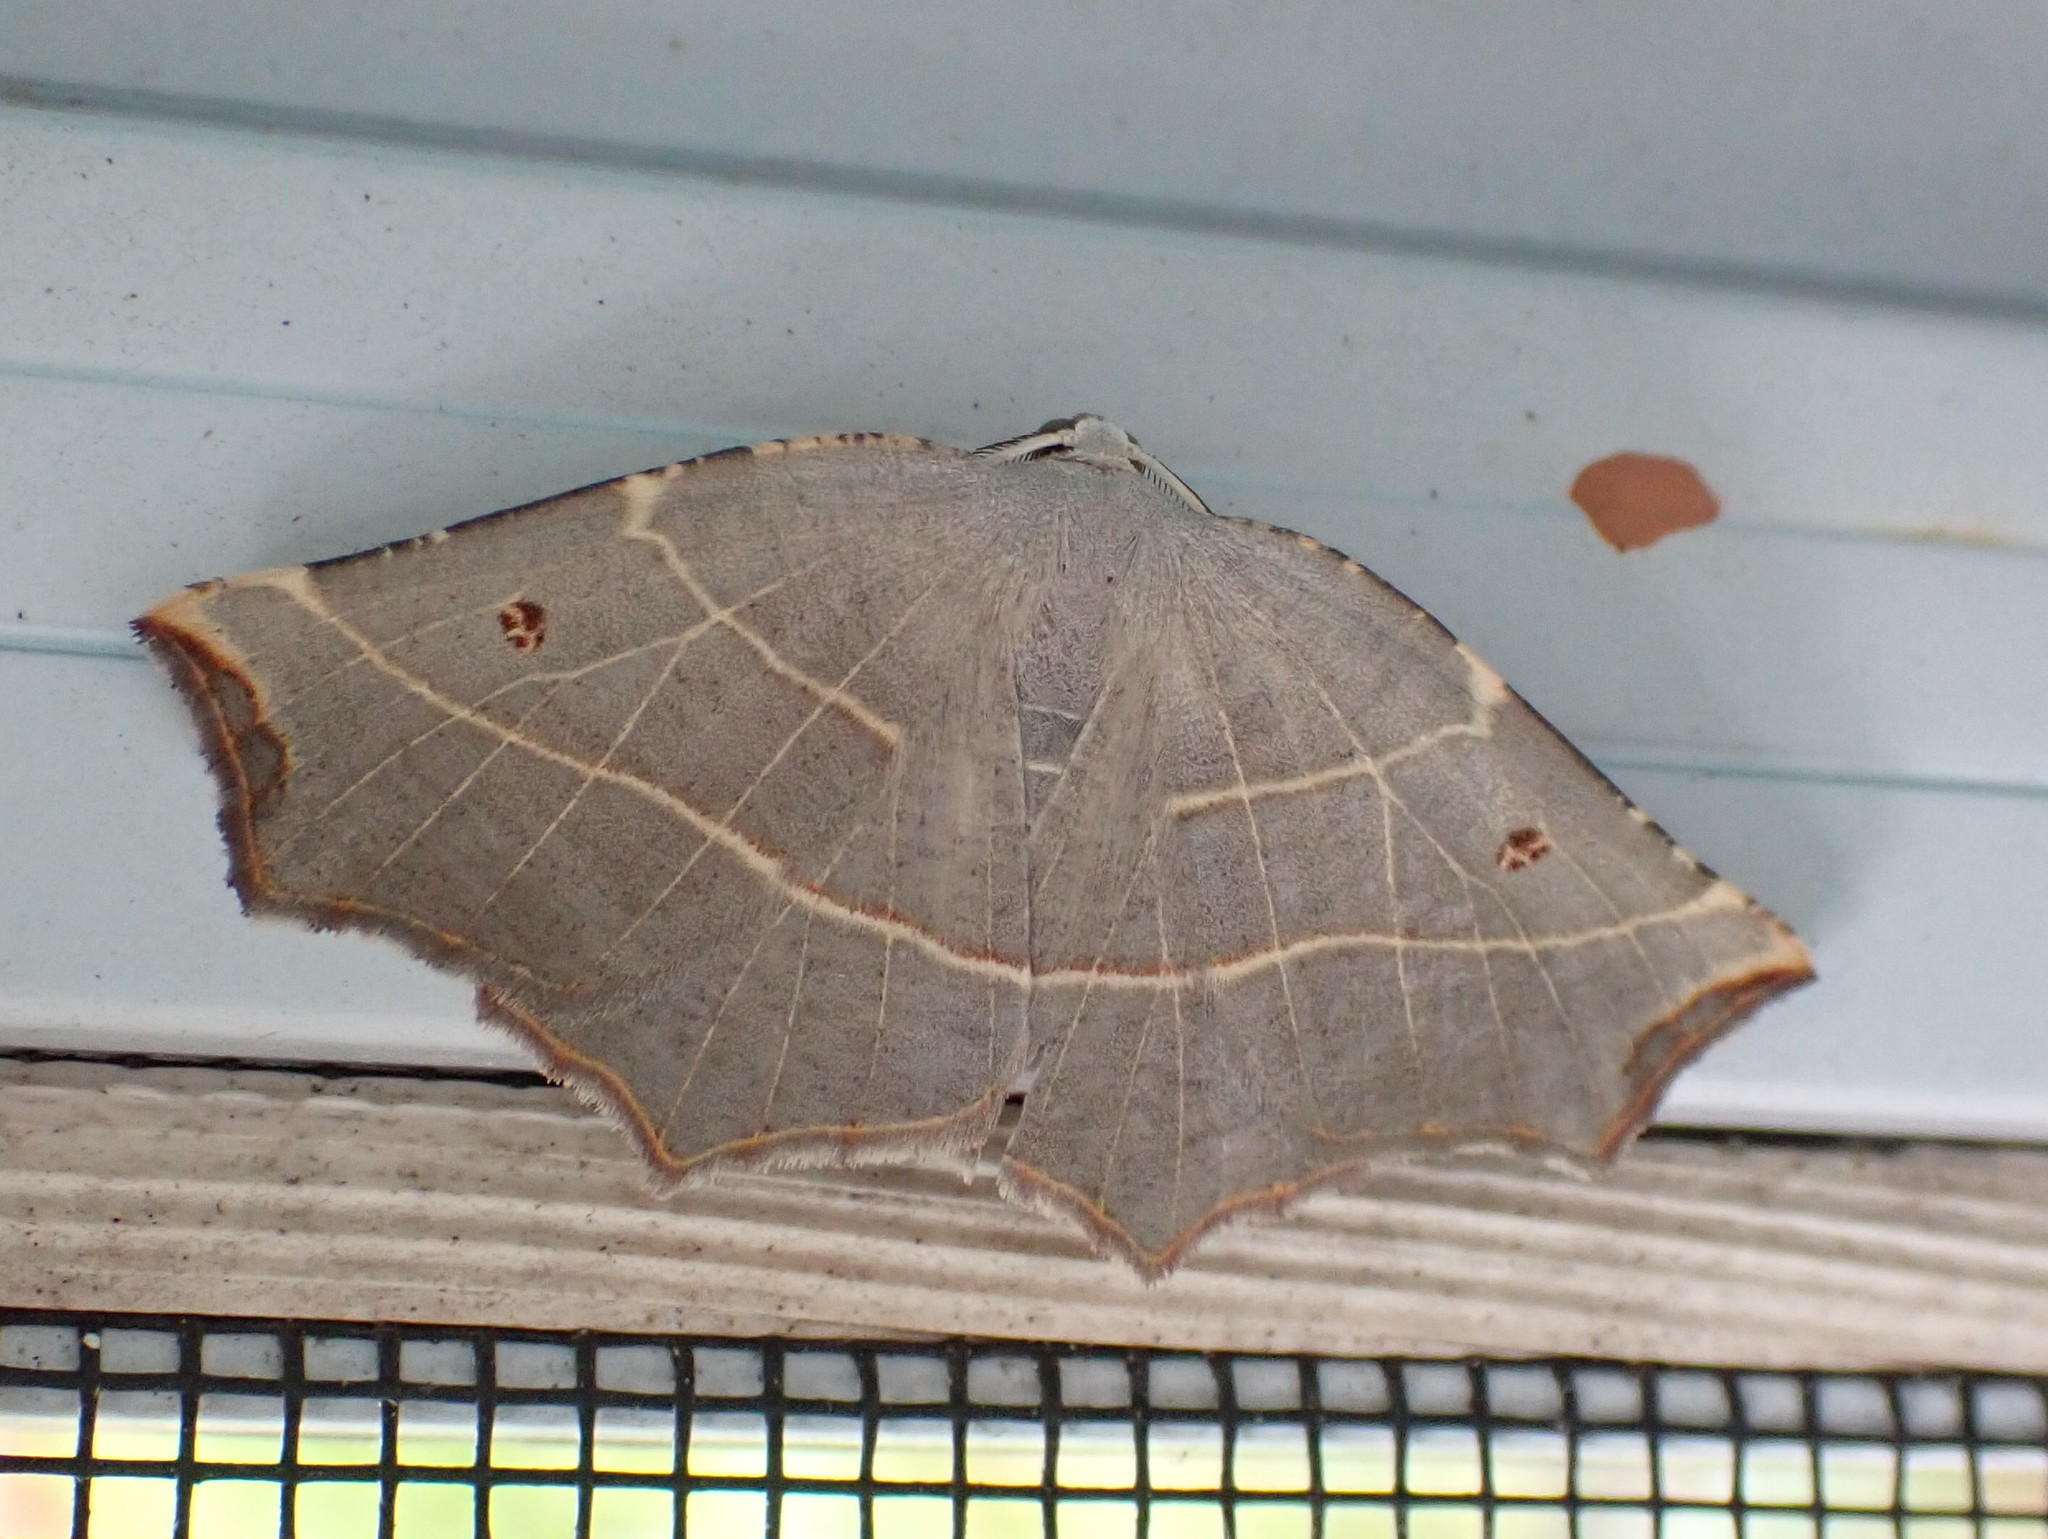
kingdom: Animalia
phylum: Arthropoda
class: Insecta
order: Lepidoptera
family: Geometridae
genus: Metanema
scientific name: Metanema inatomaria
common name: Pale metanema
